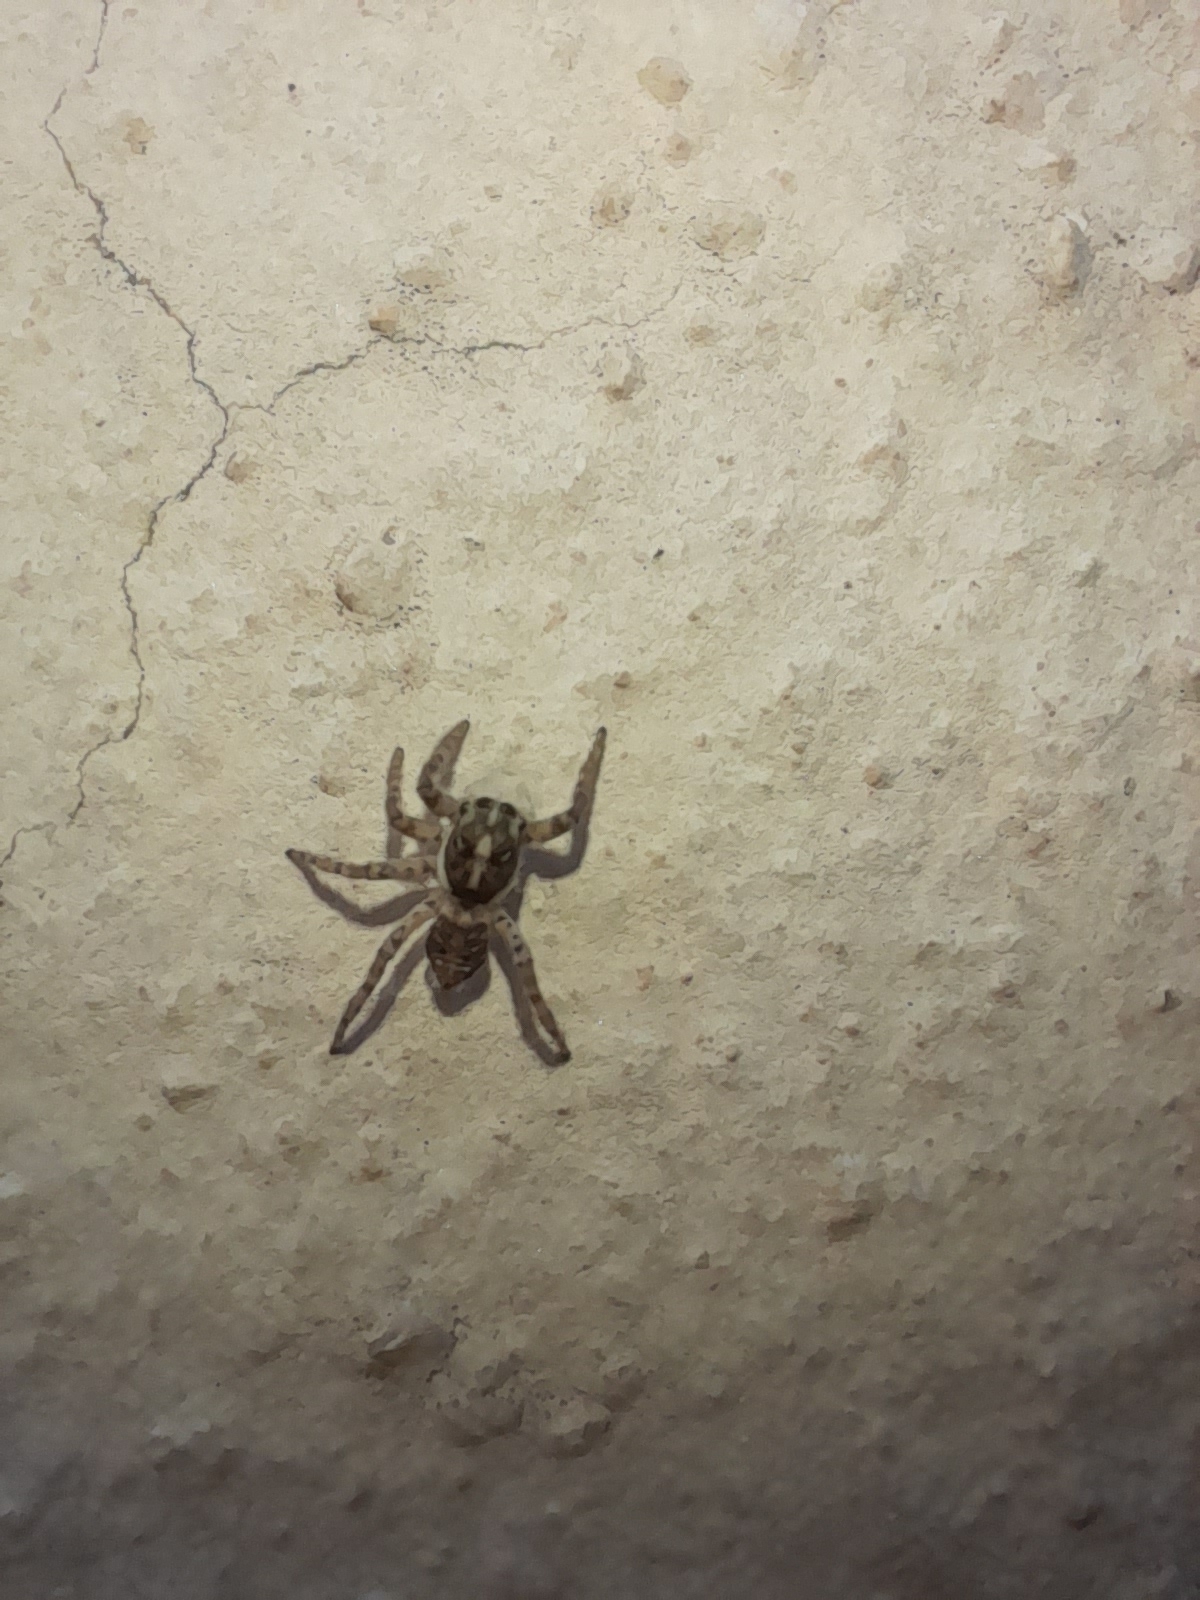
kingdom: Animalia
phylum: Arthropoda
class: Arachnida
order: Araneae
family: Salticidae
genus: Menemerus
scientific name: Menemerus semilimbatus
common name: Jumping spider
